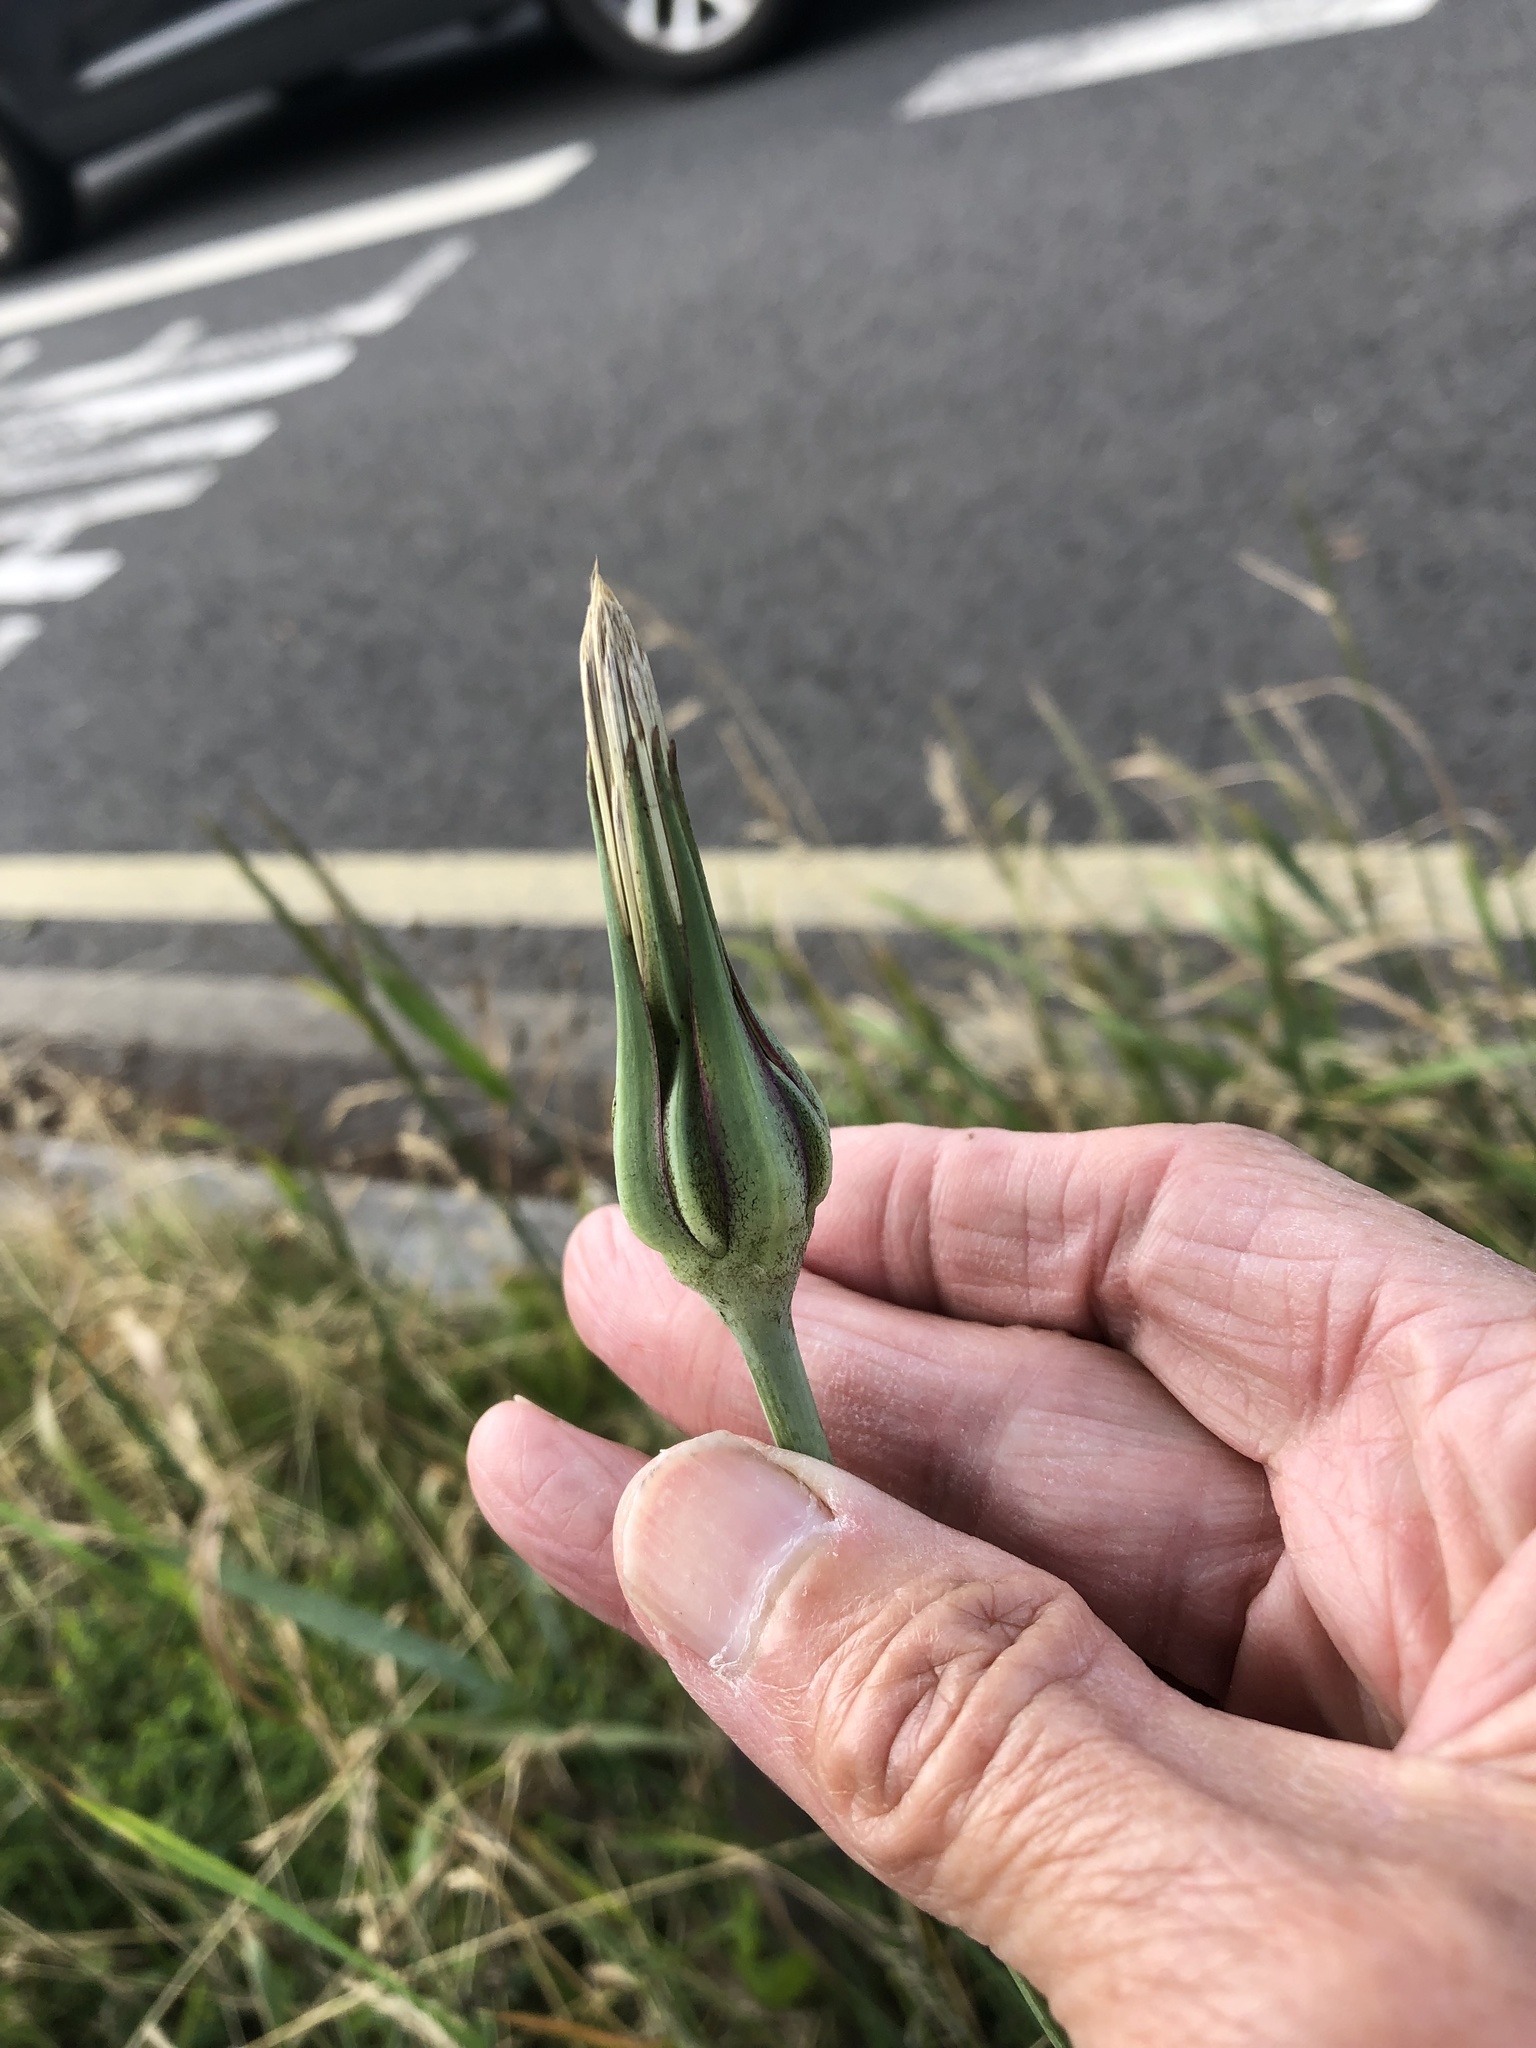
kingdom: Plantae
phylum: Tracheophyta
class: Magnoliopsida
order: Asterales
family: Asteraceae
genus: Tragopogon
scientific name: Tragopogon pratensis
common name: Goat's-beard
